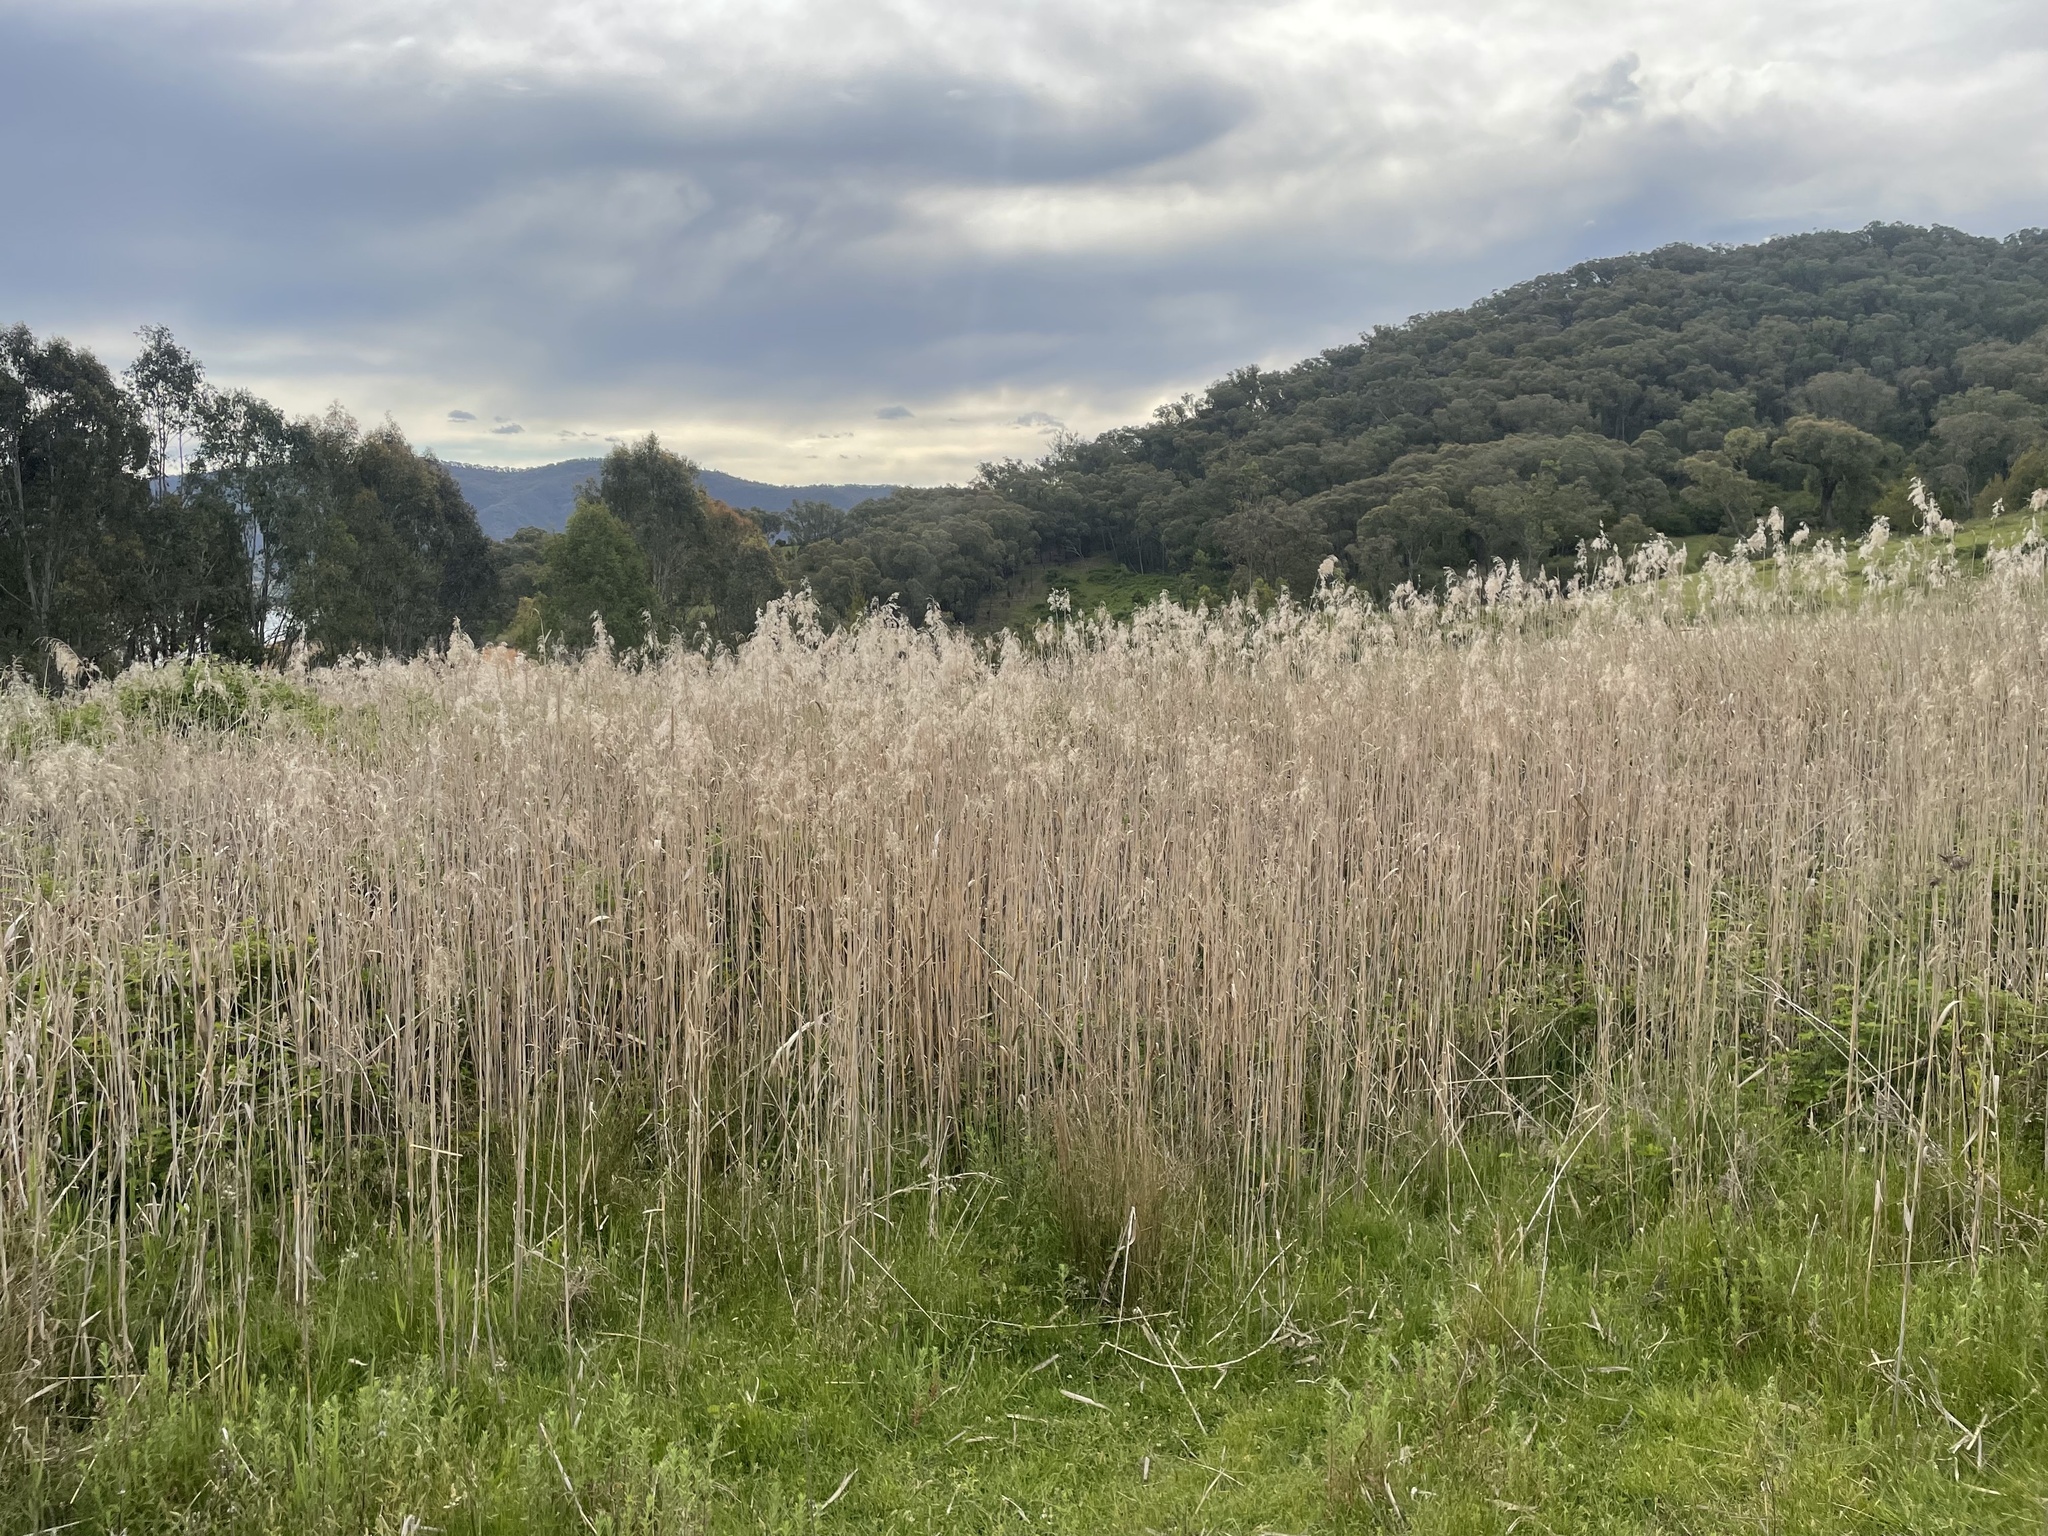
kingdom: Plantae
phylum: Tracheophyta
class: Liliopsida
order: Poales
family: Poaceae
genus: Phragmites
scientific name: Phragmites australis
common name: Common reed
